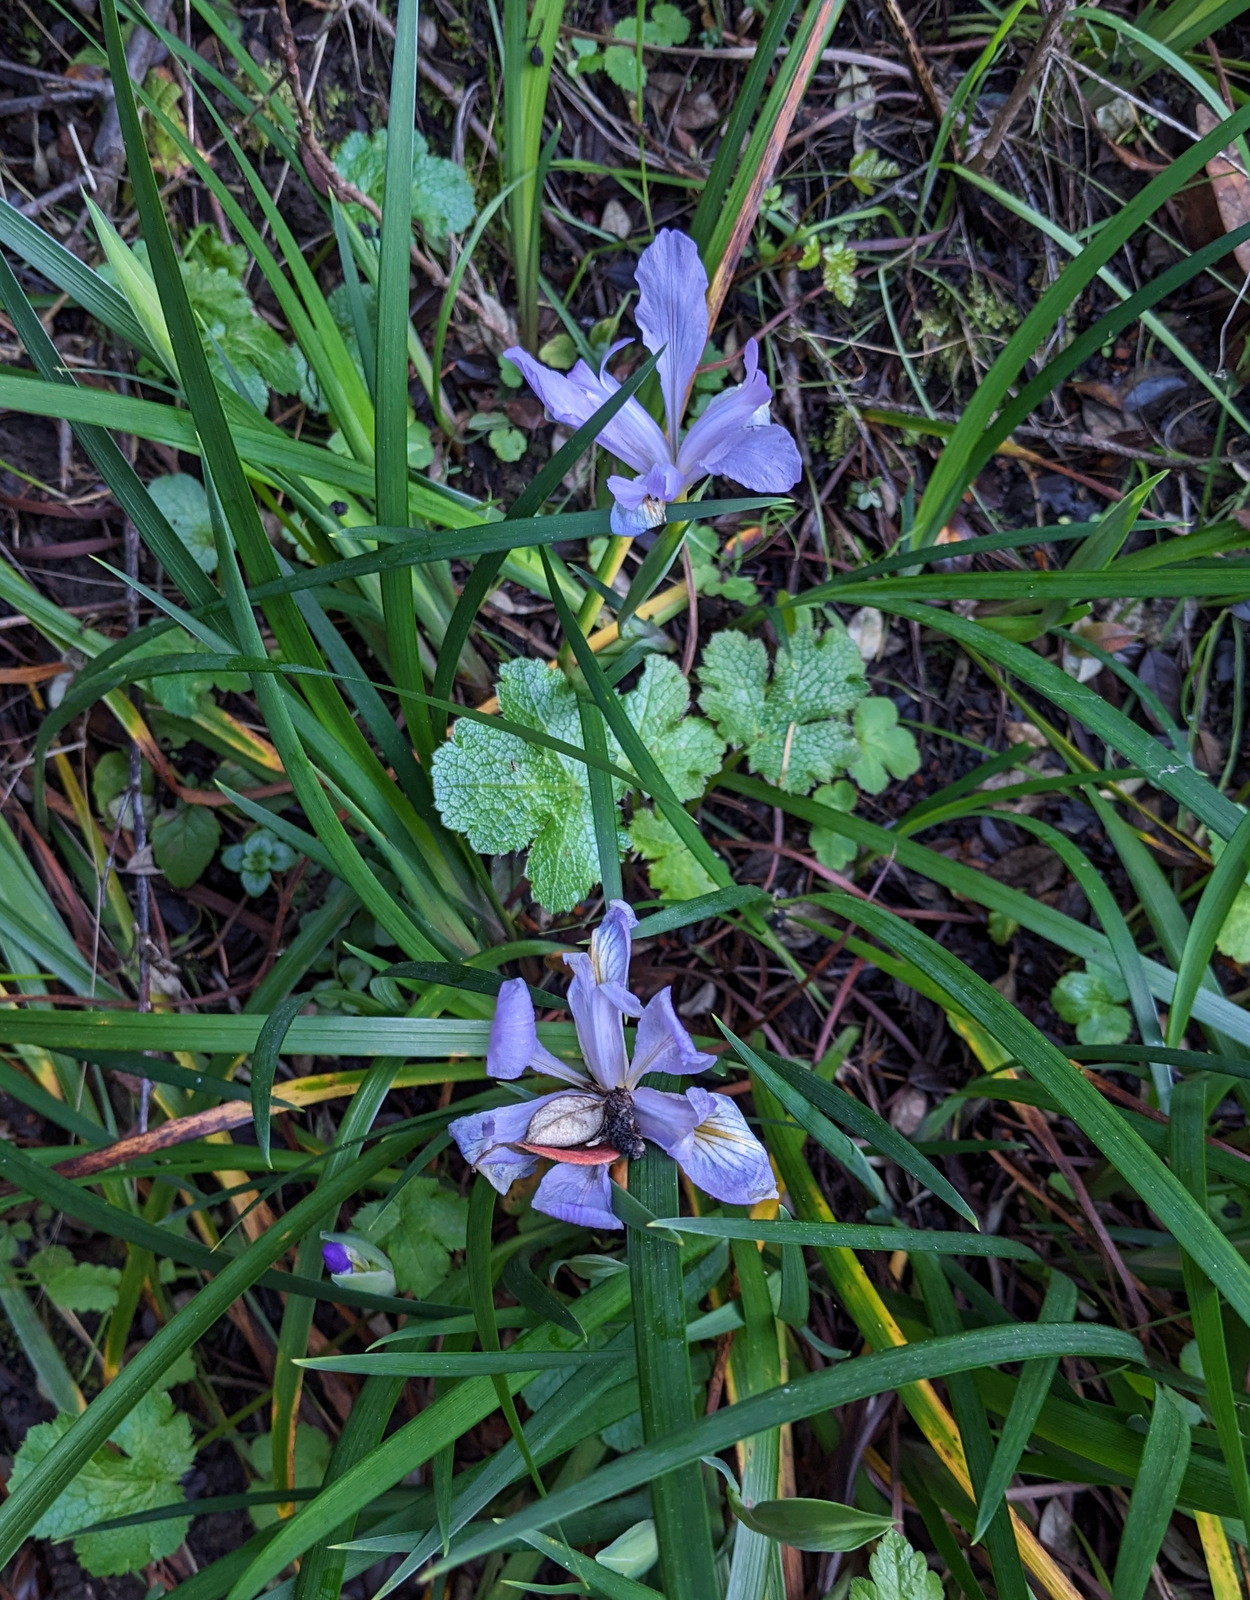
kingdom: Plantae
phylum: Tracheophyta
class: Liliopsida
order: Asparagales
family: Iridaceae
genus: Iris
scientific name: Iris douglasiana
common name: Marin iris
